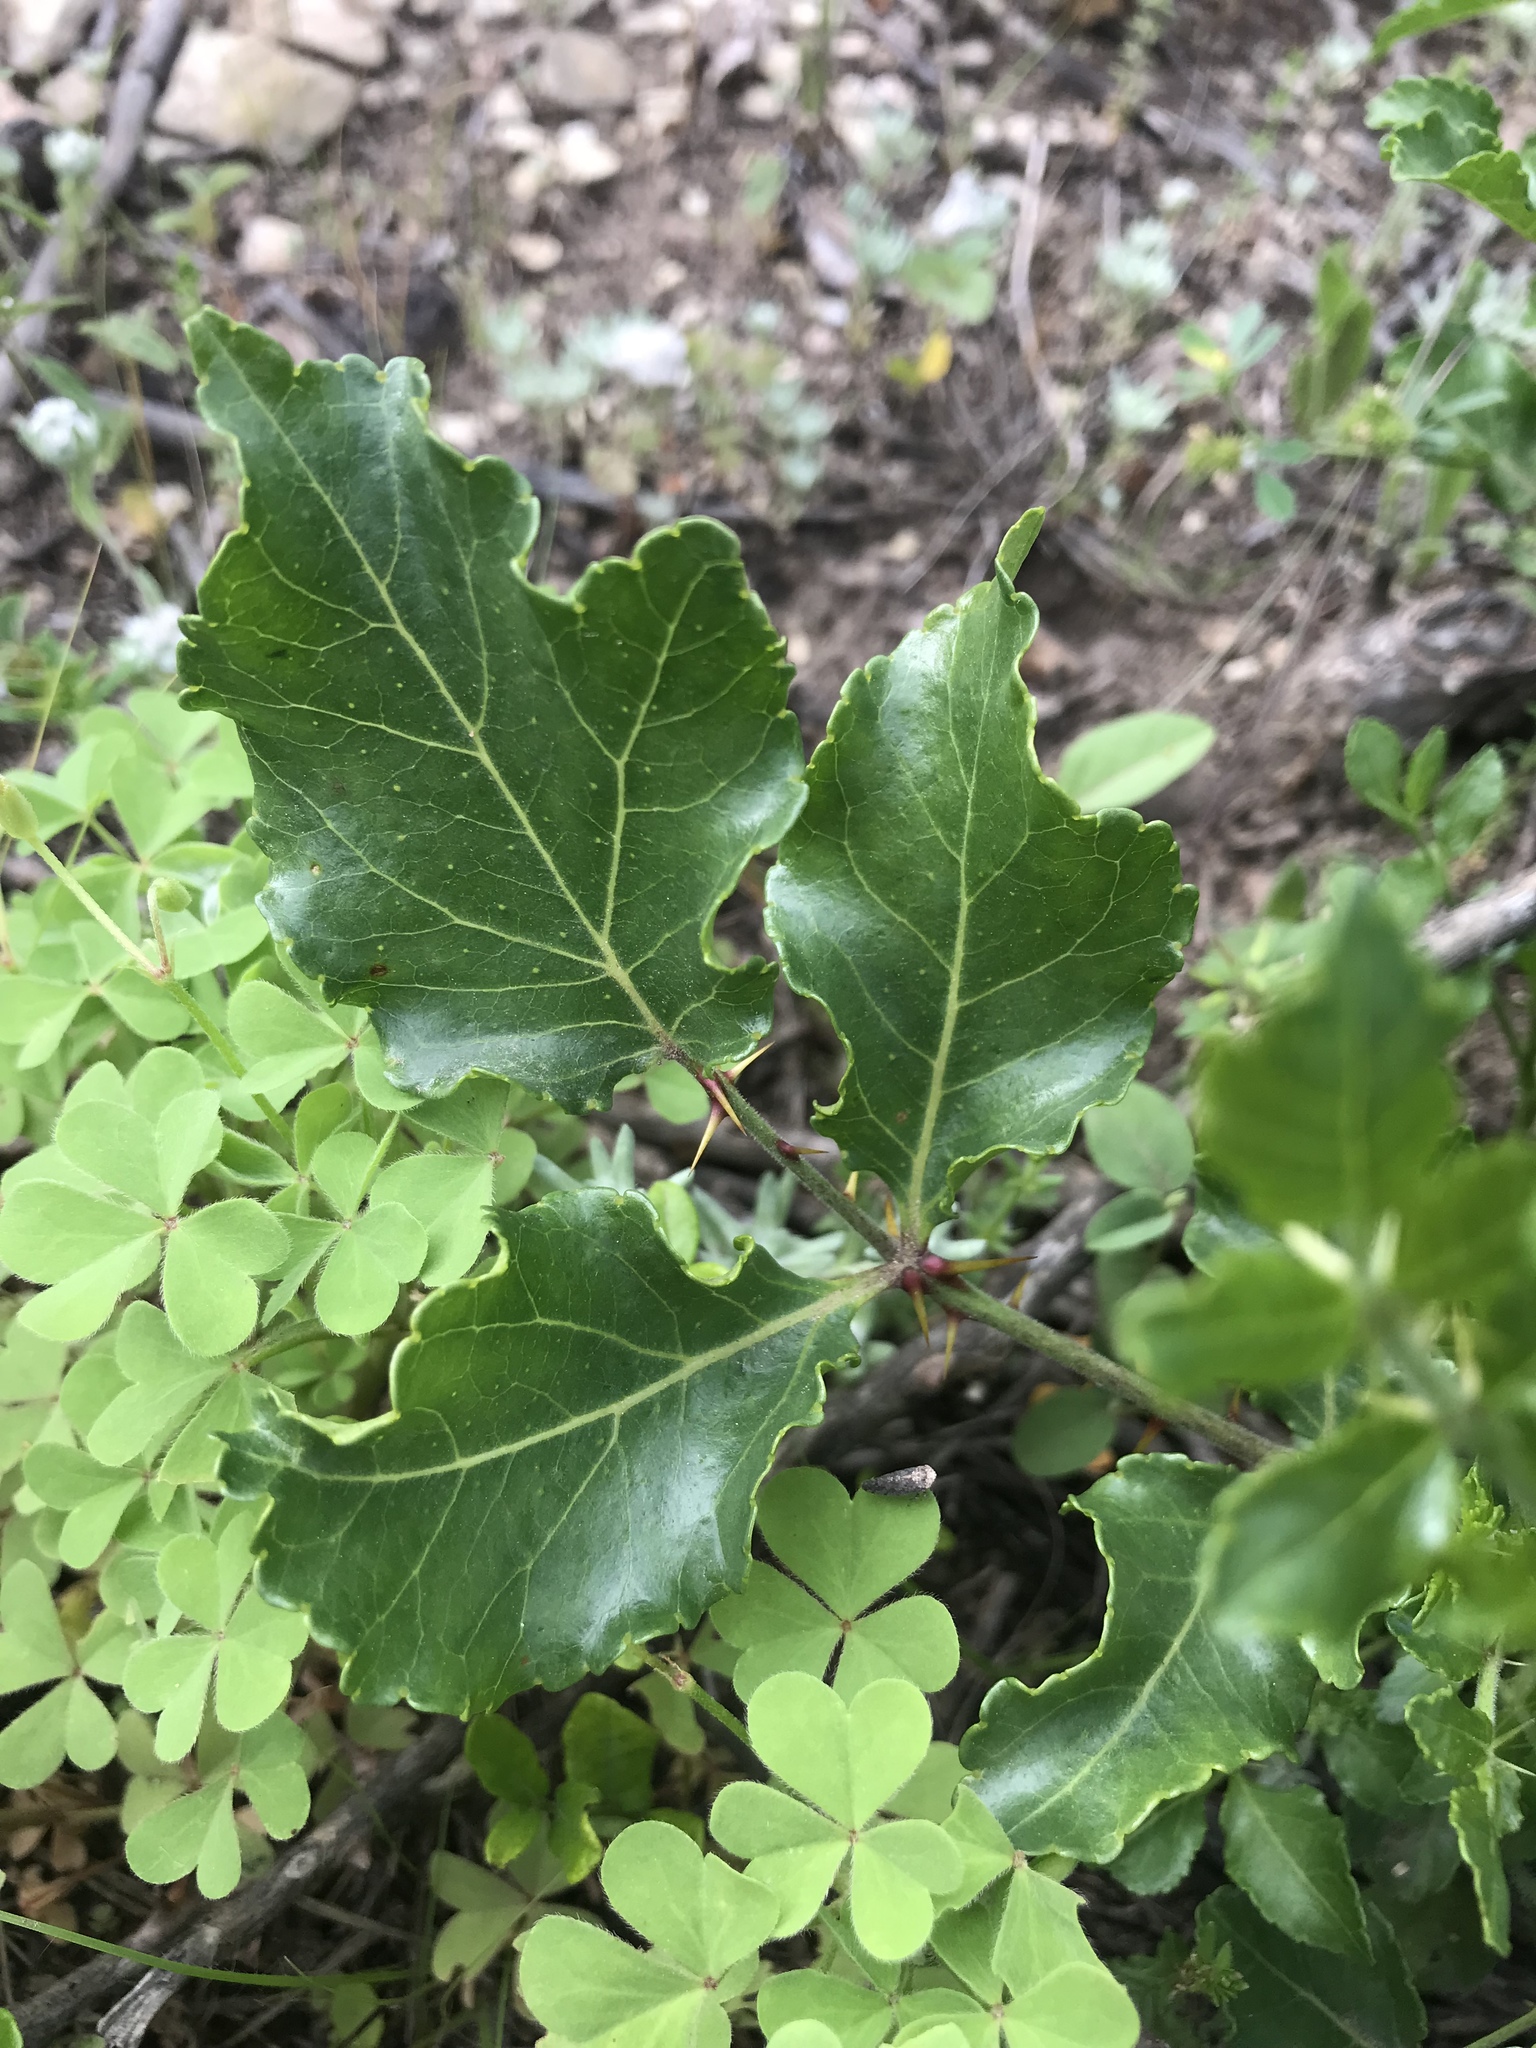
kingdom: Plantae
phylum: Tracheophyta
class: Magnoliopsida
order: Sapindales
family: Rutaceae
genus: Zanthoxylum
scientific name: Zanthoxylum clava-herculis
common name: Hercules'-club
